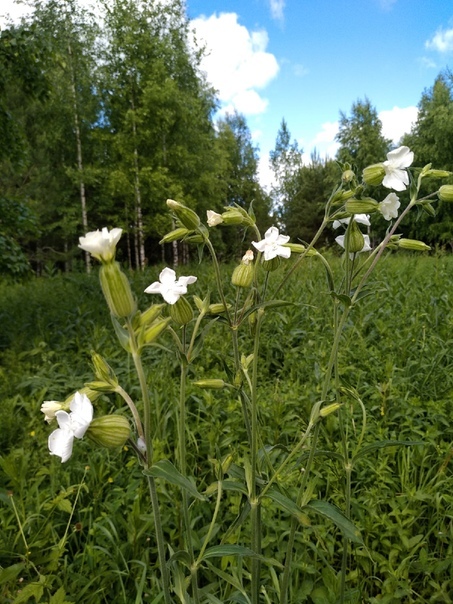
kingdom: Plantae
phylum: Tracheophyta
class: Magnoliopsida
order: Caryophyllales
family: Caryophyllaceae
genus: Silene
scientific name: Silene latifolia
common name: White campion
